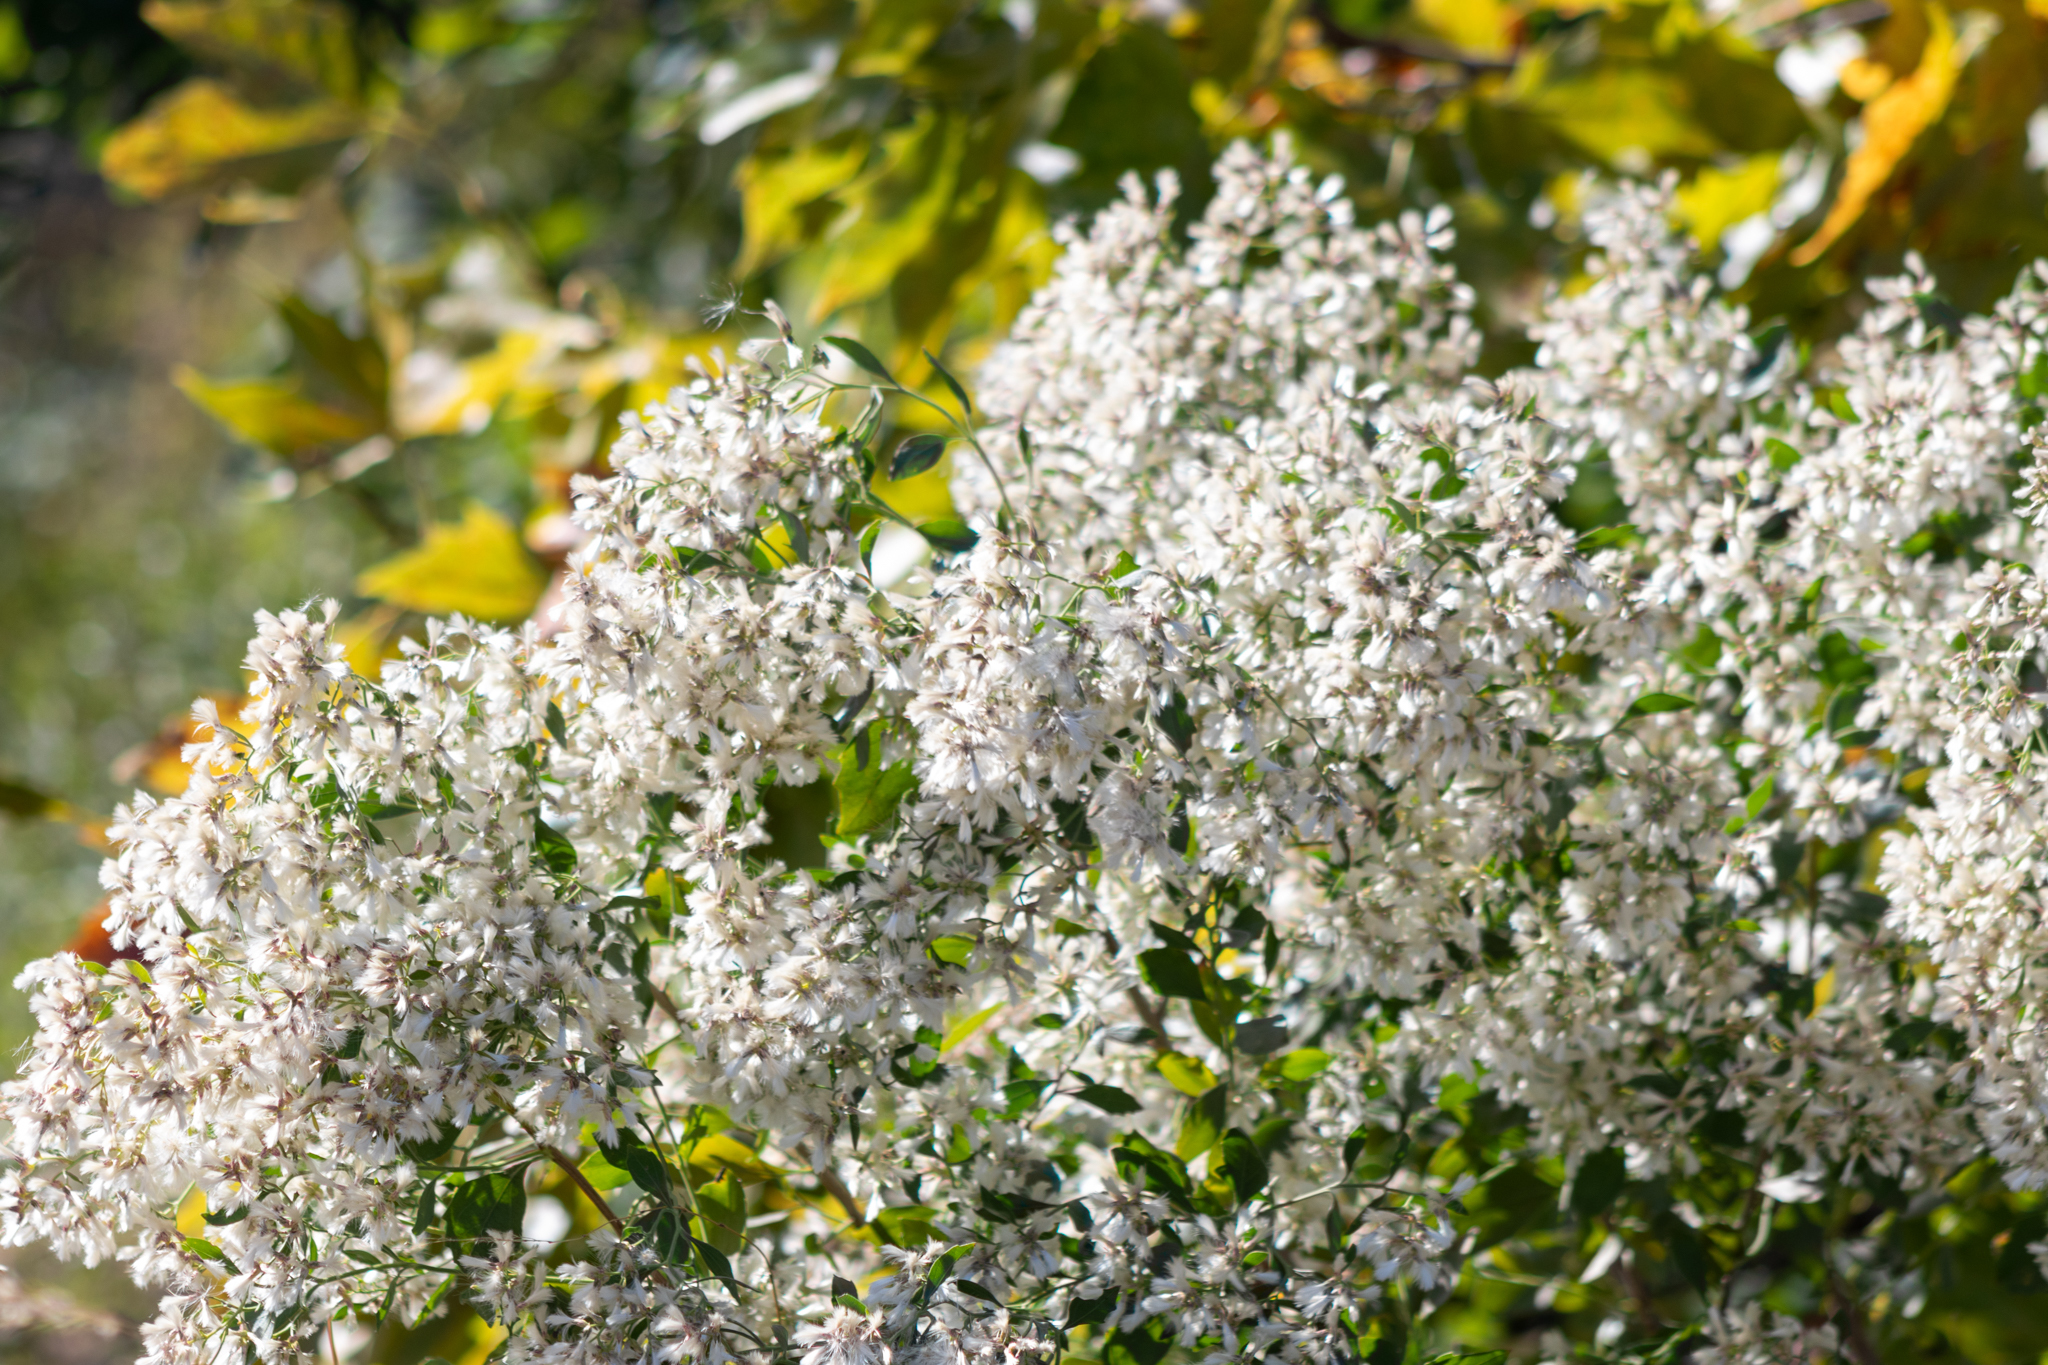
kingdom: Plantae
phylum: Tracheophyta
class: Magnoliopsida
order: Asterales
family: Asteraceae
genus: Baccharis
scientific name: Baccharis halimifolia
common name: Eastern baccharis
